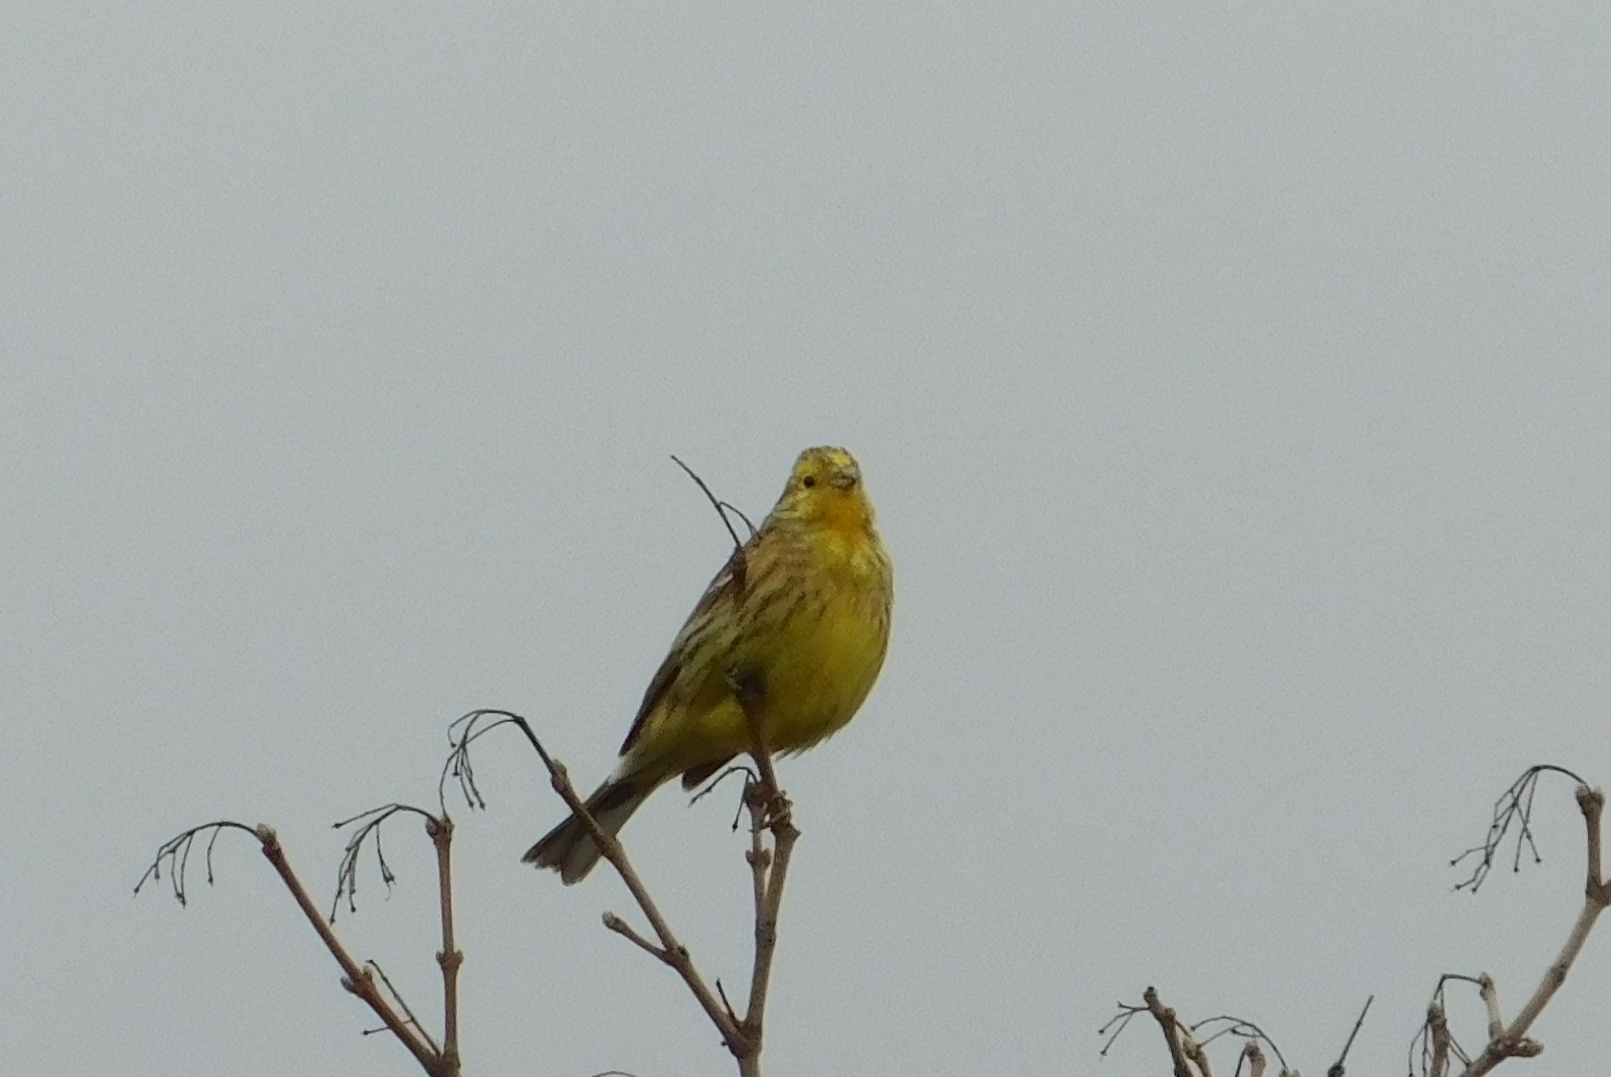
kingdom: Animalia
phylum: Chordata
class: Aves
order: Passeriformes
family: Emberizidae
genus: Emberiza
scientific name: Emberiza citrinella
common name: Yellowhammer
